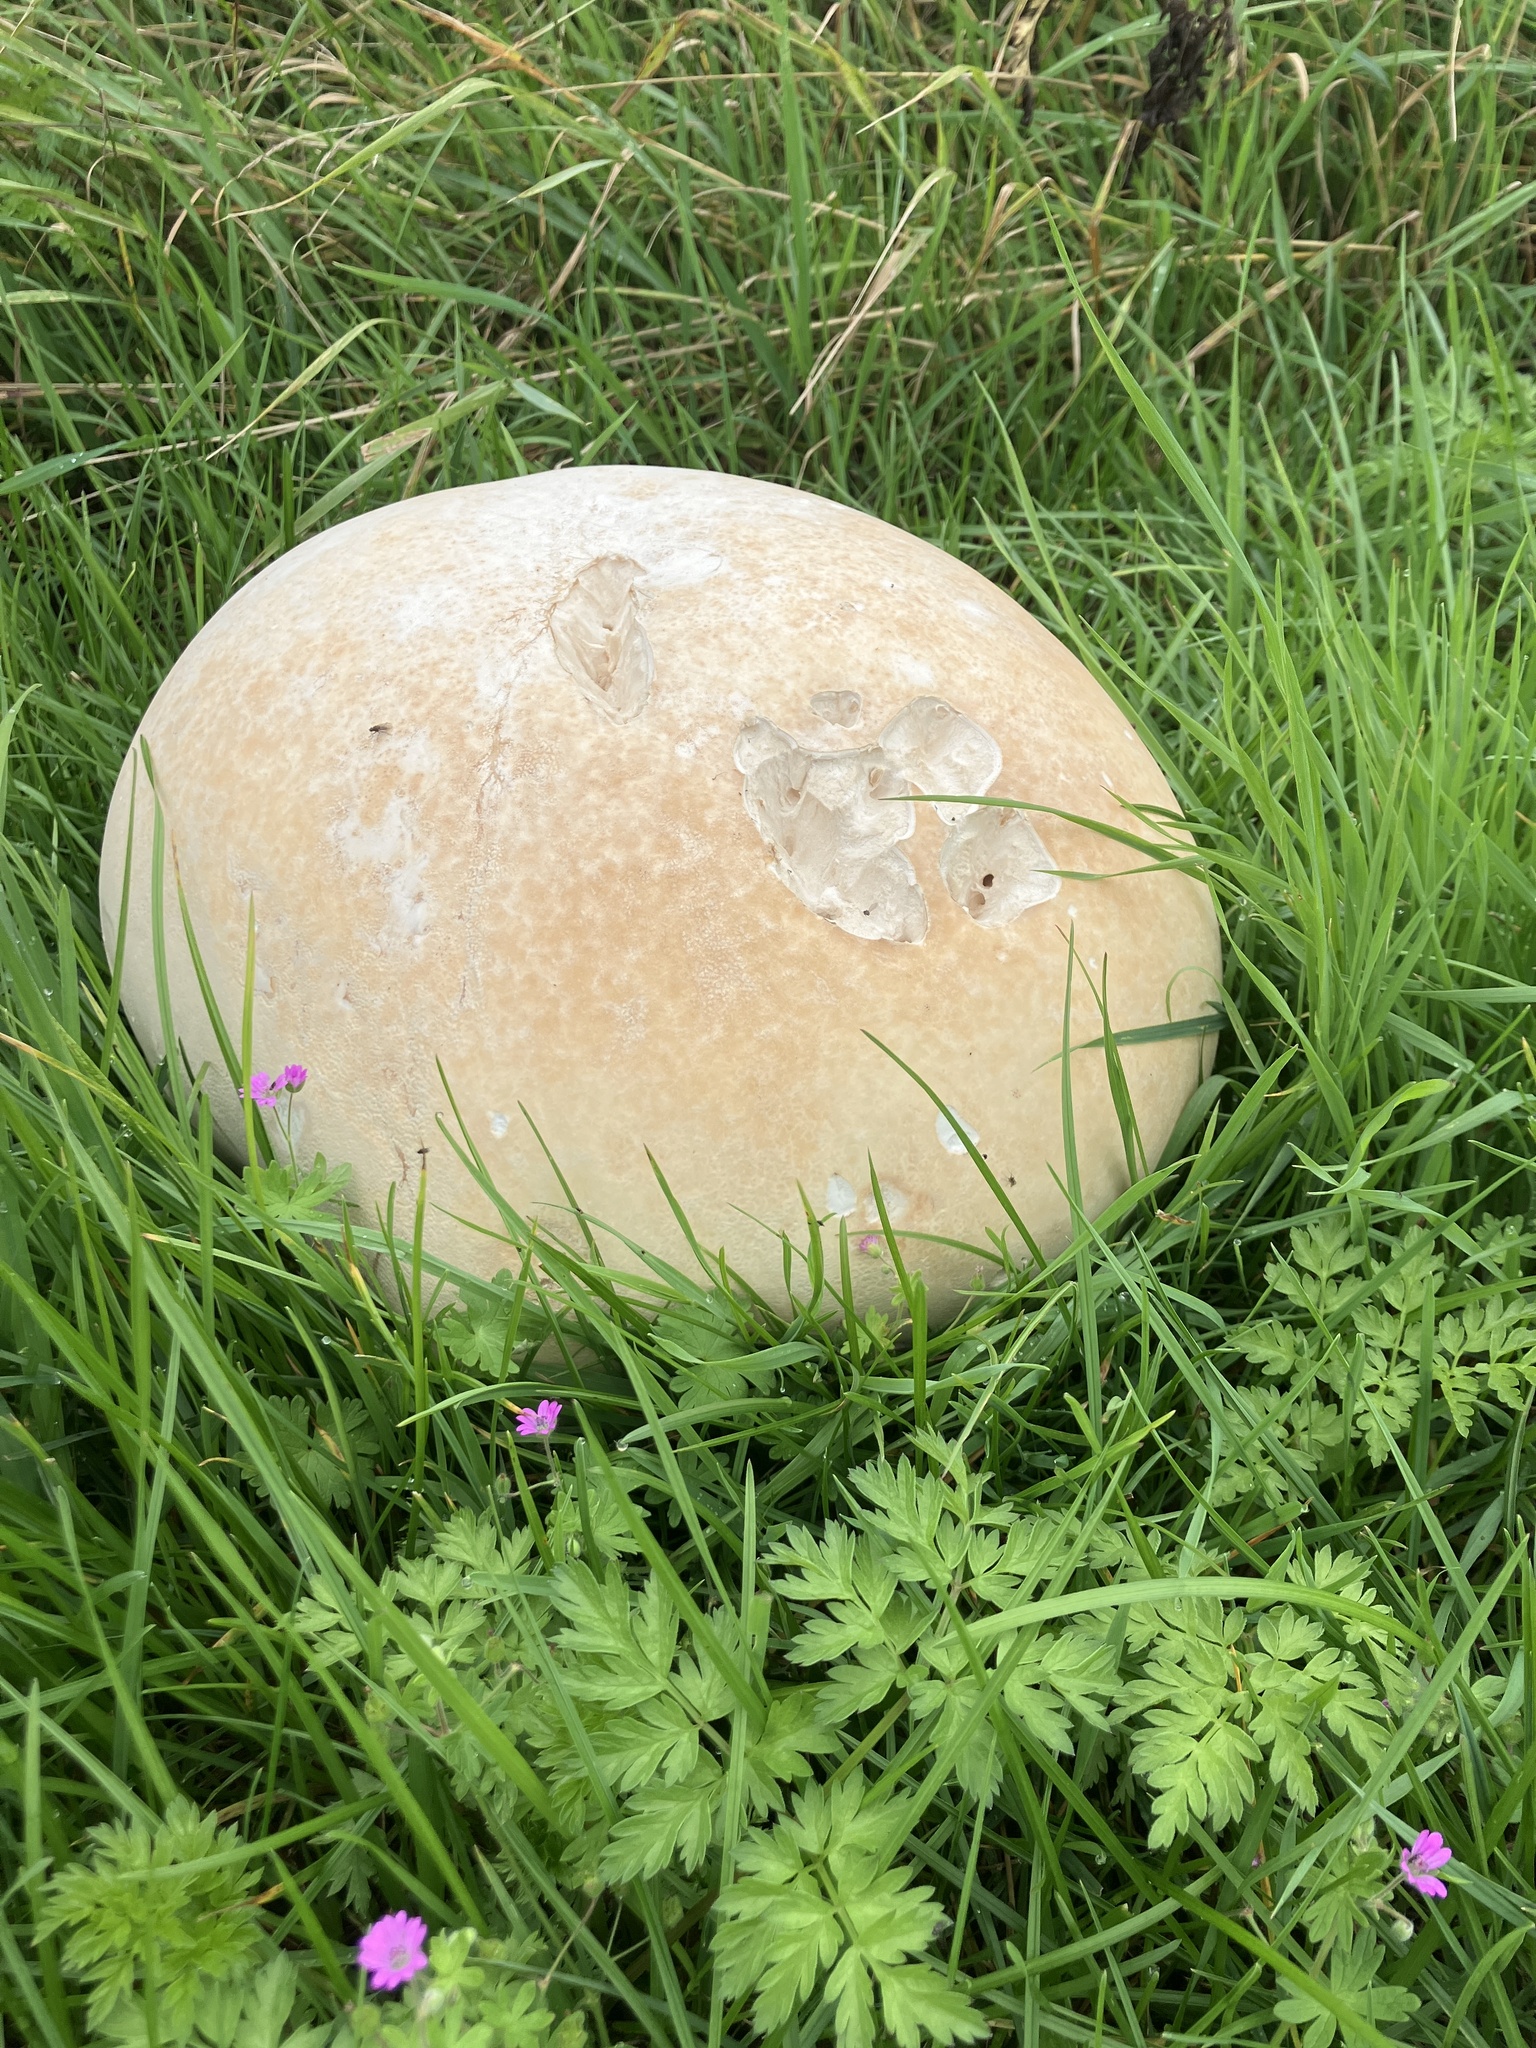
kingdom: Fungi
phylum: Basidiomycota
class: Agaricomycetes
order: Agaricales
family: Lycoperdaceae
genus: Calvatia
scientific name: Calvatia gigantea
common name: Giant puffball
